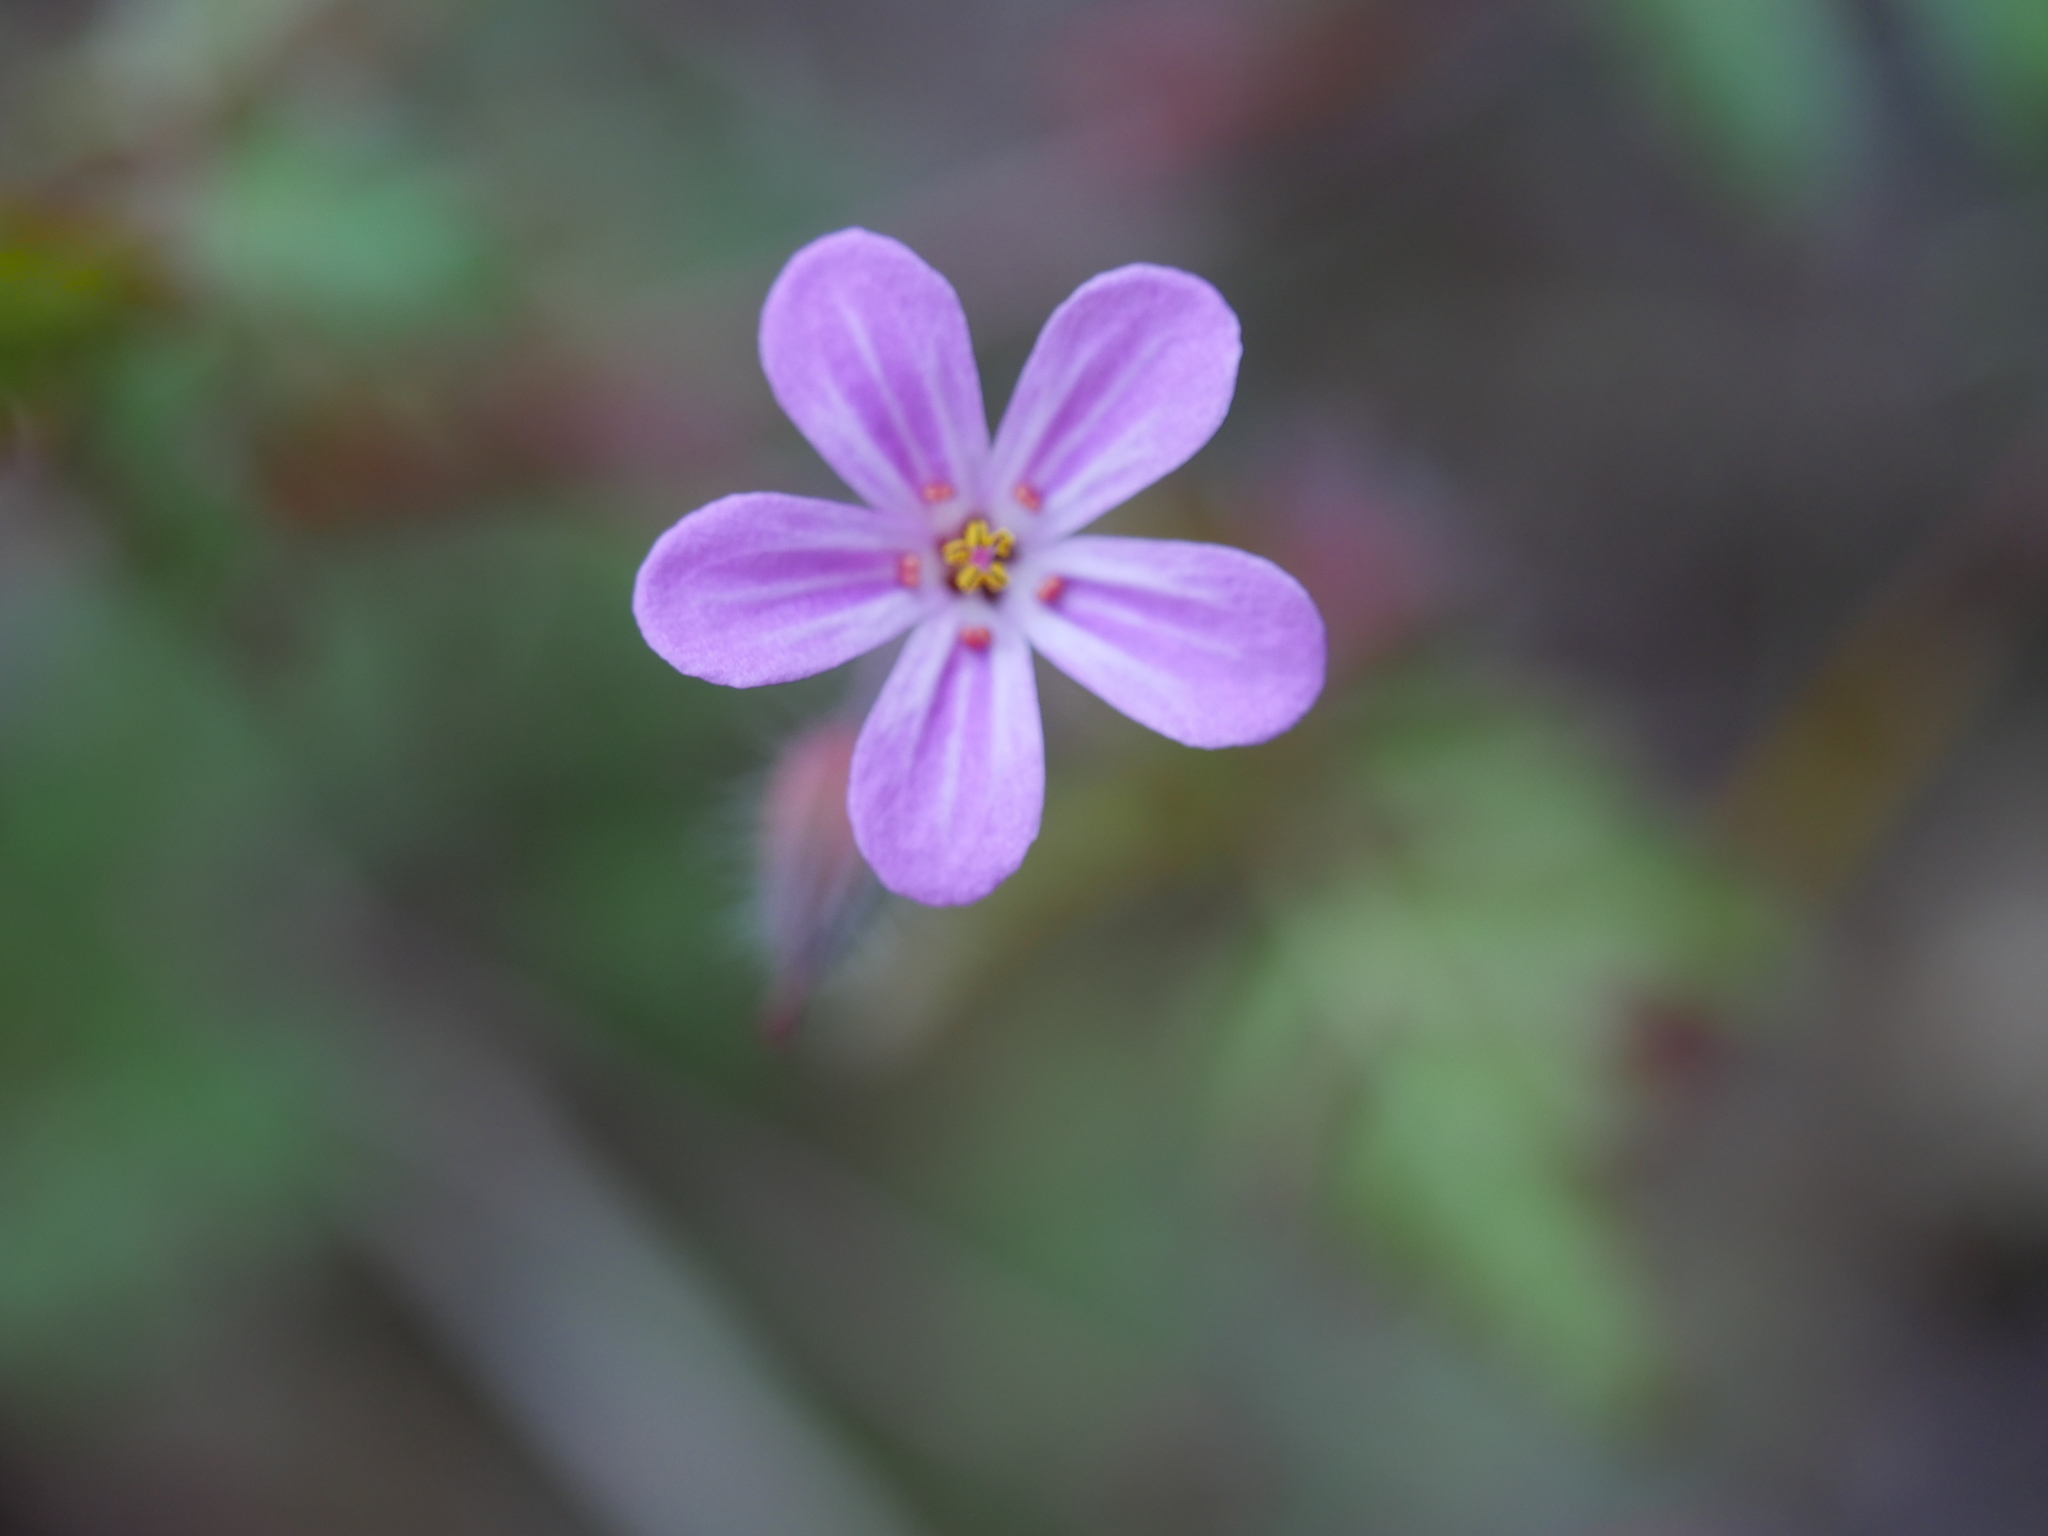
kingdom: Plantae
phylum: Tracheophyta
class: Magnoliopsida
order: Geraniales
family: Geraniaceae
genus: Geranium
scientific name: Geranium robertianum
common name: Herb-robert
